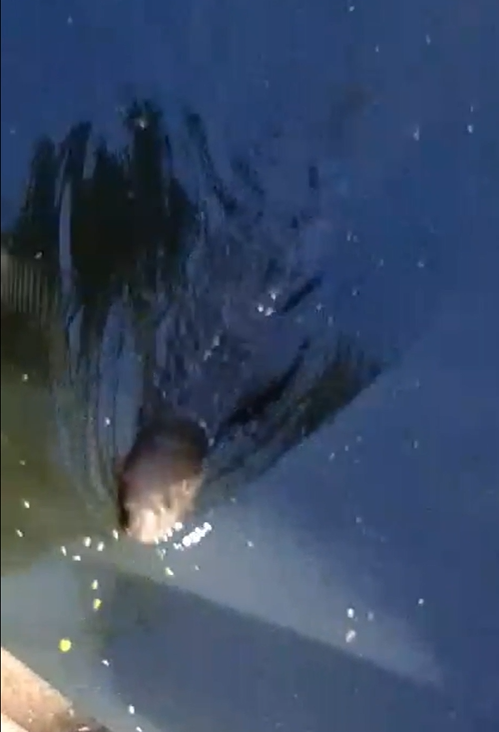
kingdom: Animalia
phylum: Chordata
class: Mammalia
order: Carnivora
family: Mustelidae
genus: Lontra
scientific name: Lontra longicaudis
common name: Neotropical otter
